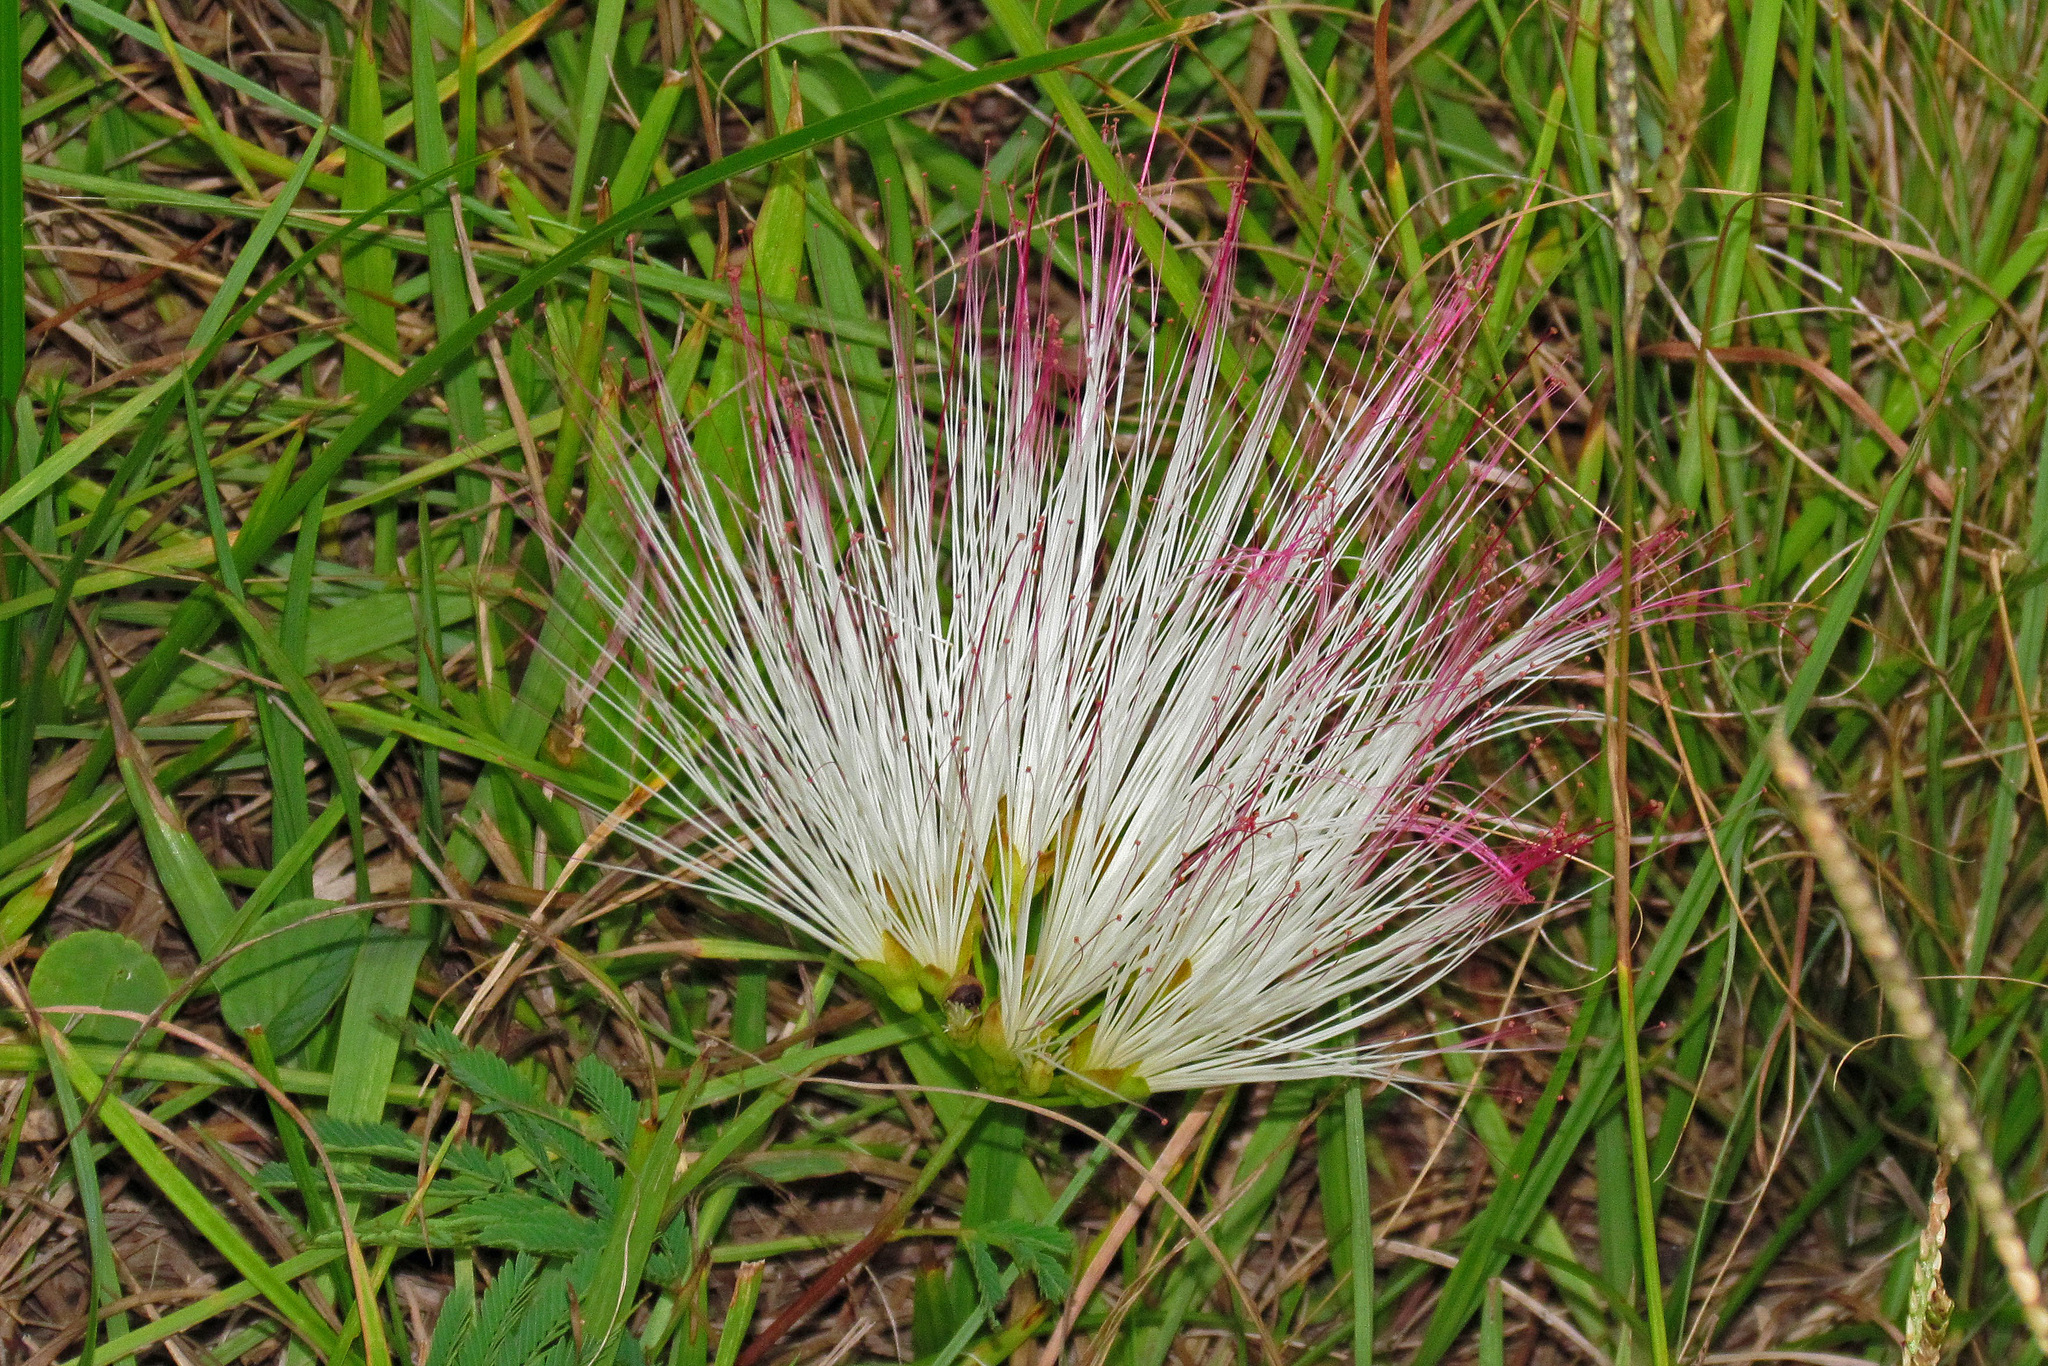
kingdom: Plantae
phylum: Tracheophyta
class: Magnoliopsida
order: Fabales
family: Fabaceae
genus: Albizia
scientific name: Albizia julibrissin
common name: Silktree
